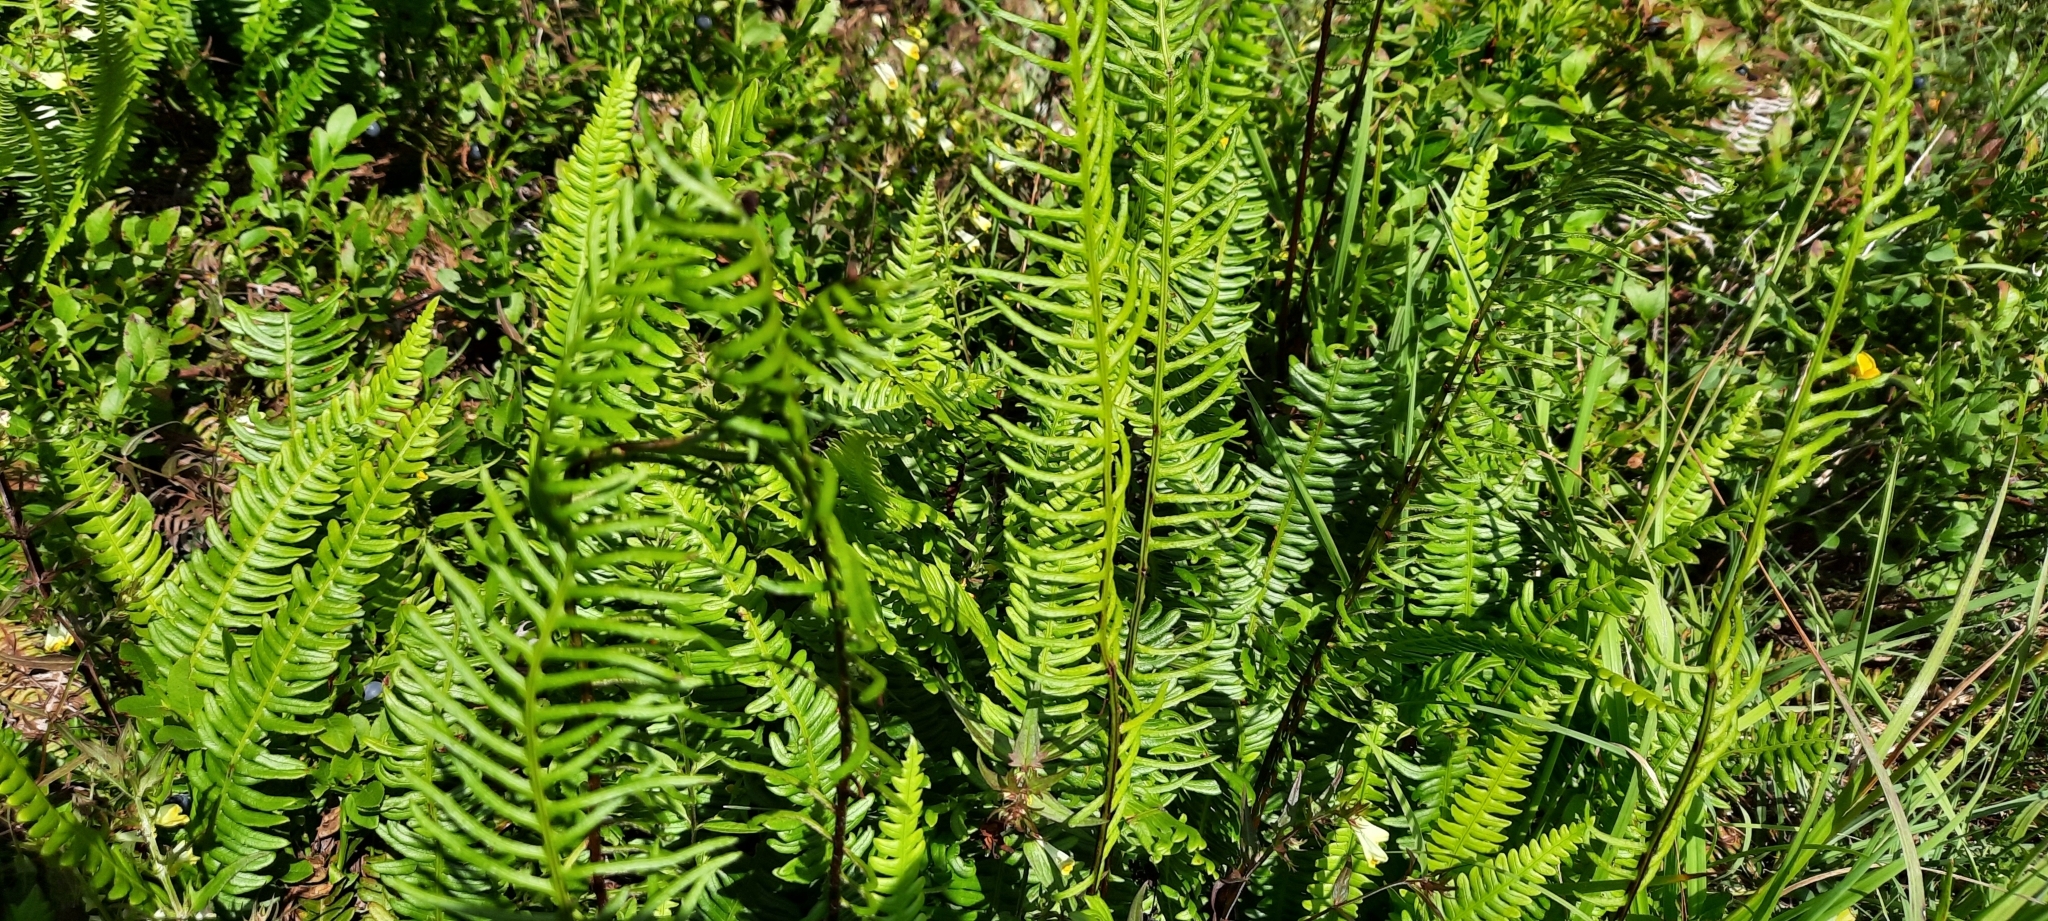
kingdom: Plantae
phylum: Tracheophyta
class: Polypodiopsida
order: Polypodiales
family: Blechnaceae
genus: Struthiopteris
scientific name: Struthiopteris spicant
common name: Deer fern
